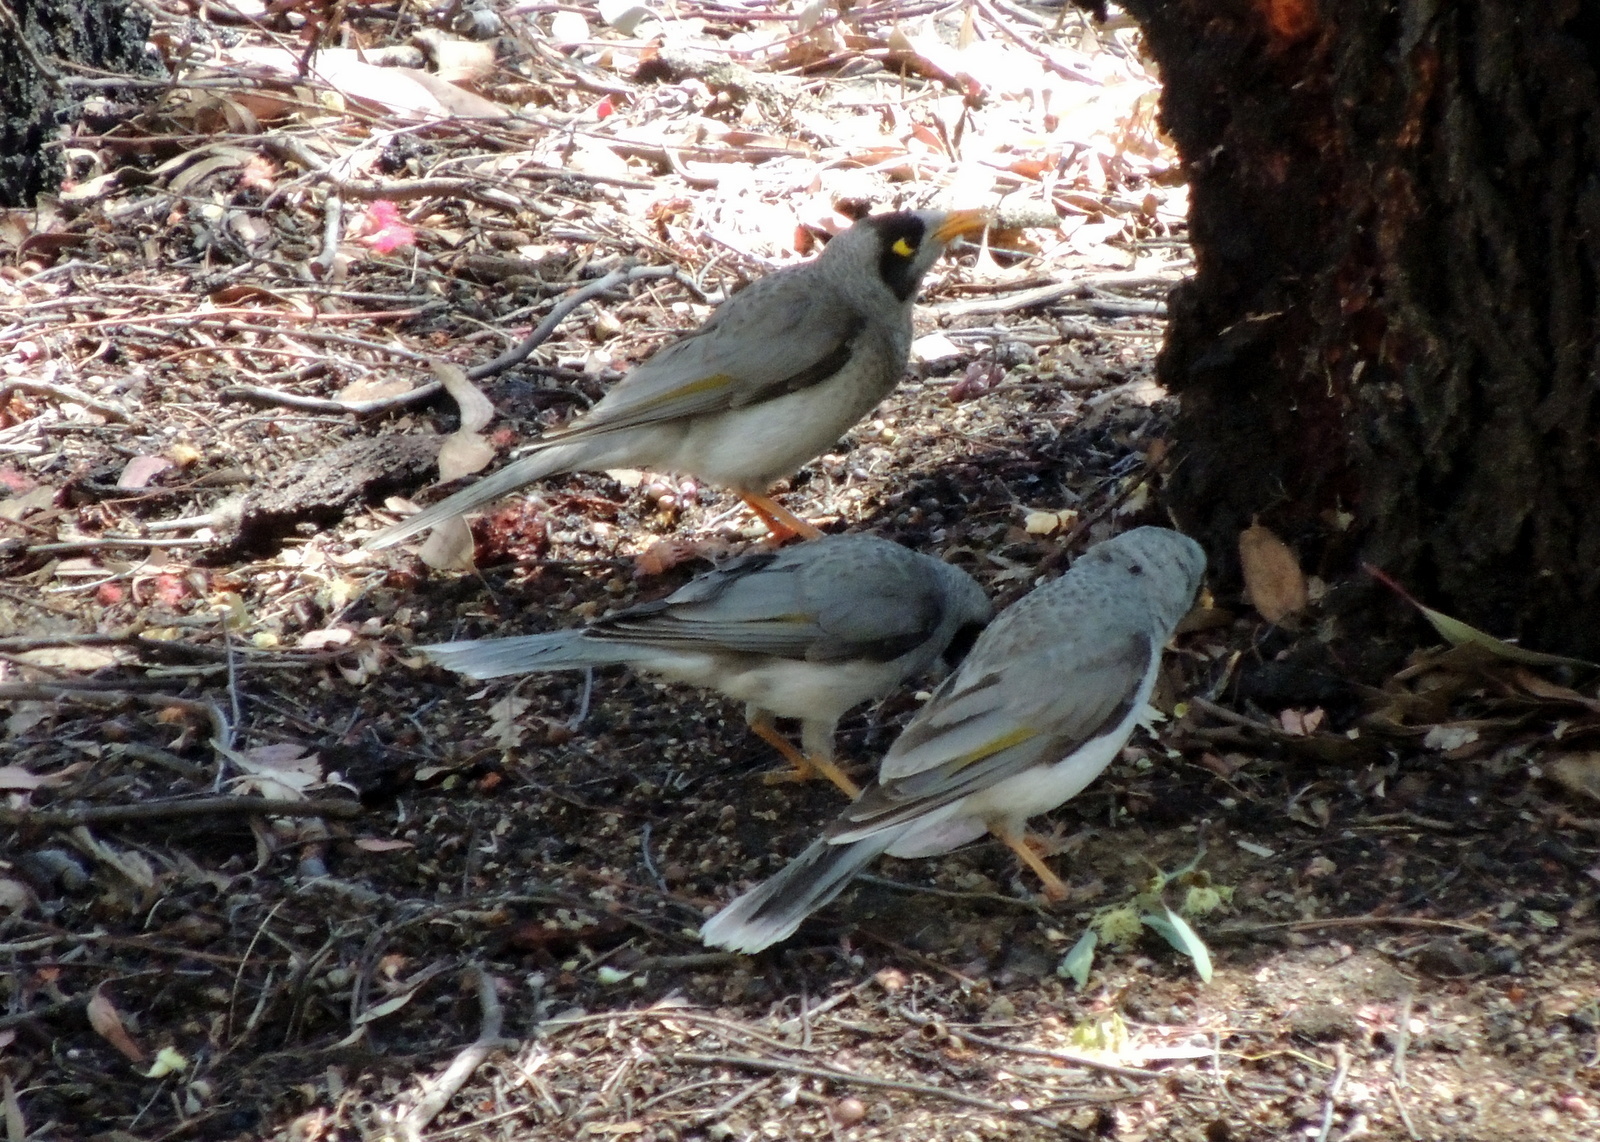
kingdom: Animalia
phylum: Chordata
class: Aves
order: Passeriformes
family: Meliphagidae
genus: Manorina
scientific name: Manorina melanocephala
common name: Noisy miner
